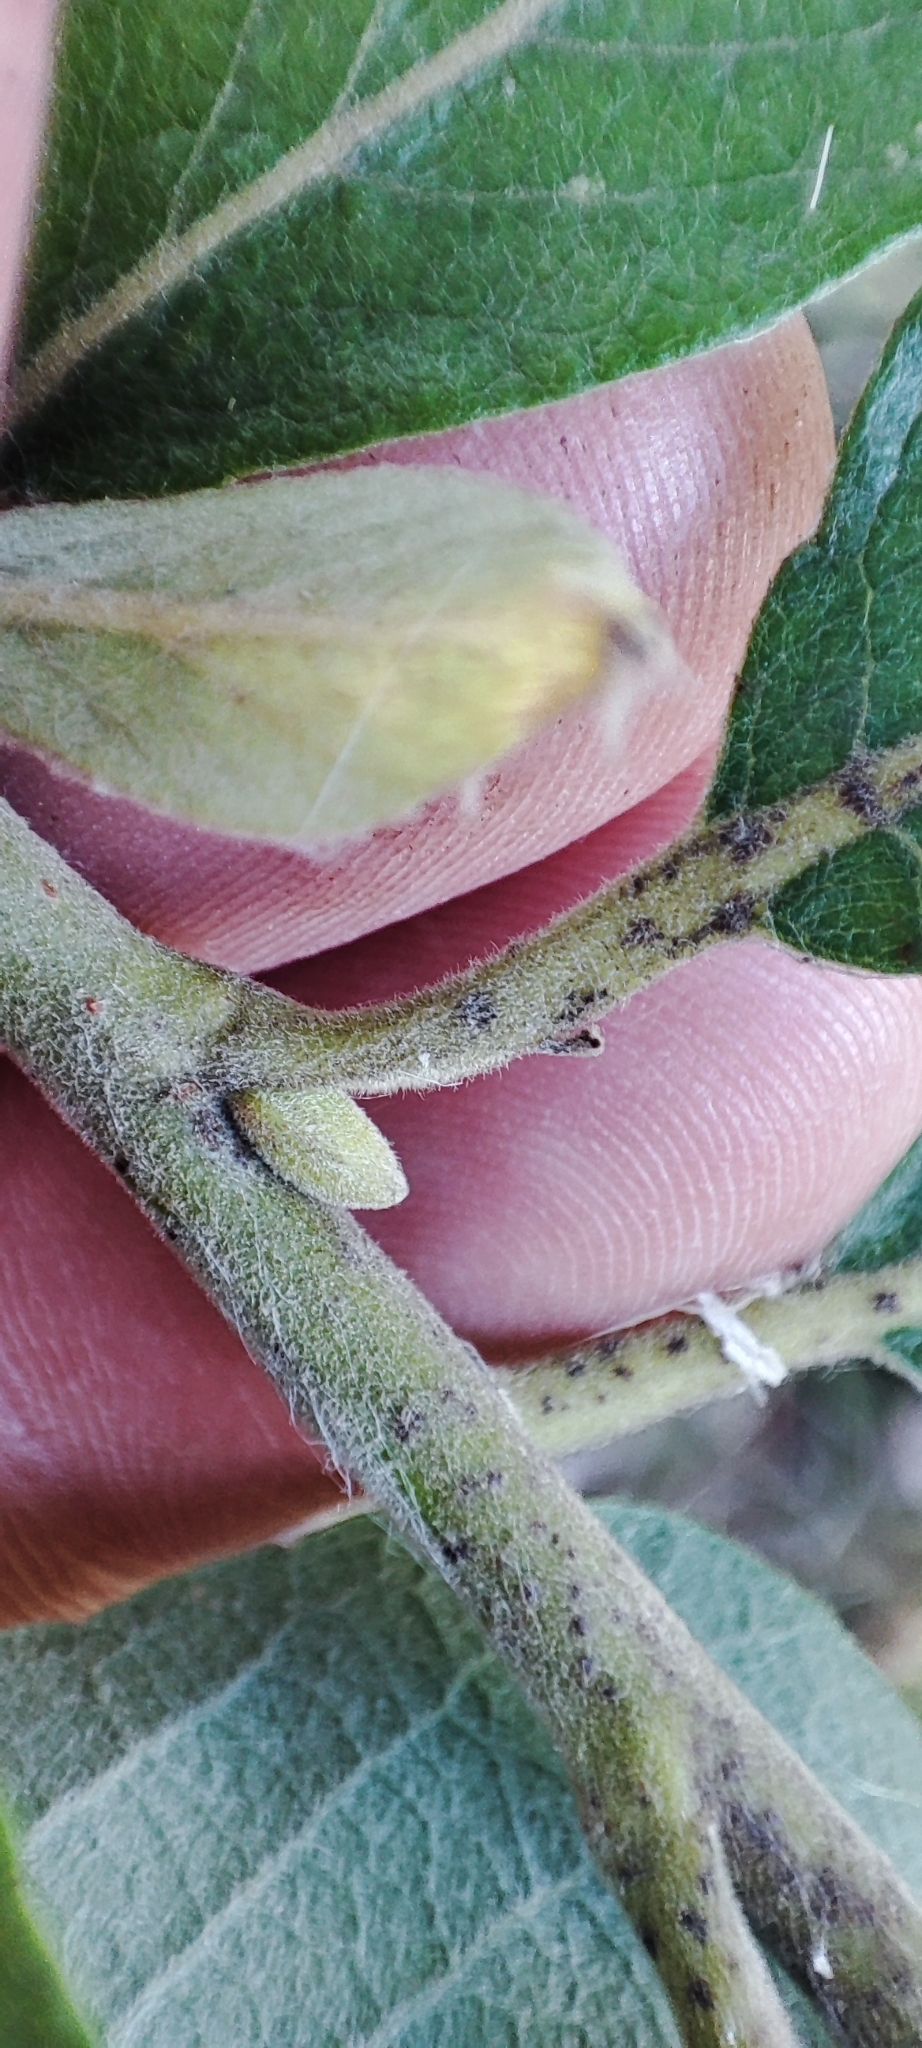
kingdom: Plantae
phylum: Tracheophyta
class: Magnoliopsida
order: Malpighiales
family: Salicaceae
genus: Salix
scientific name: Salix caprea
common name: Goat willow
